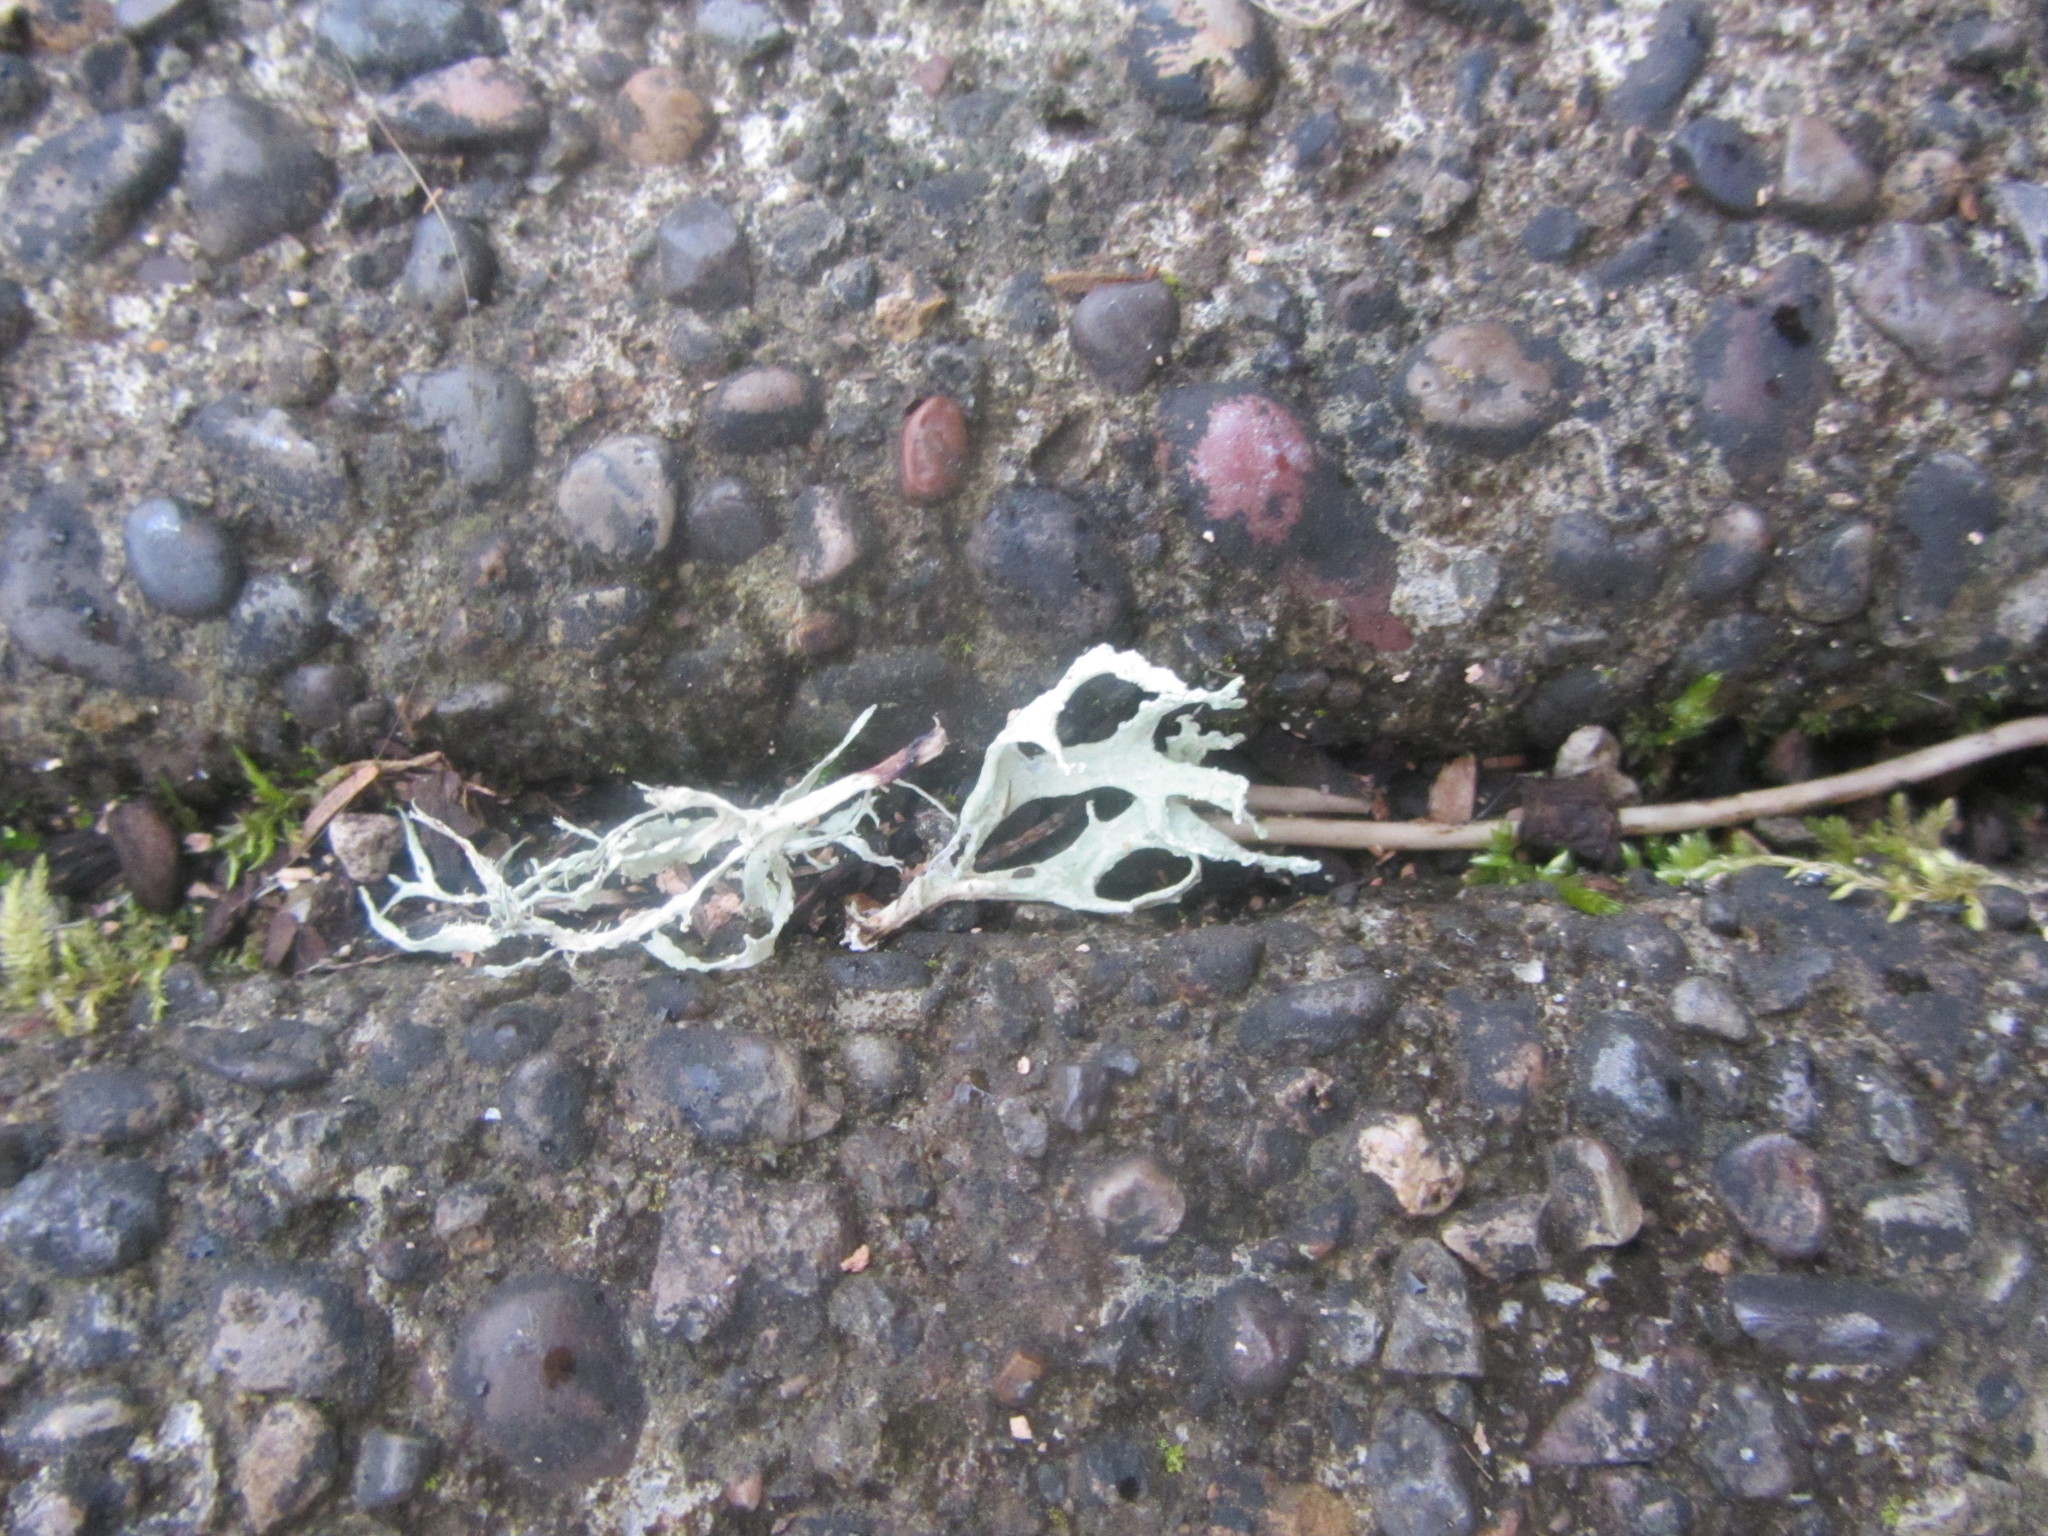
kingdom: Fungi
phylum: Ascomycota
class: Lecanoromycetes
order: Lecanorales
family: Parmeliaceae
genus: Evernia
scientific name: Evernia prunastri
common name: Oak moss
